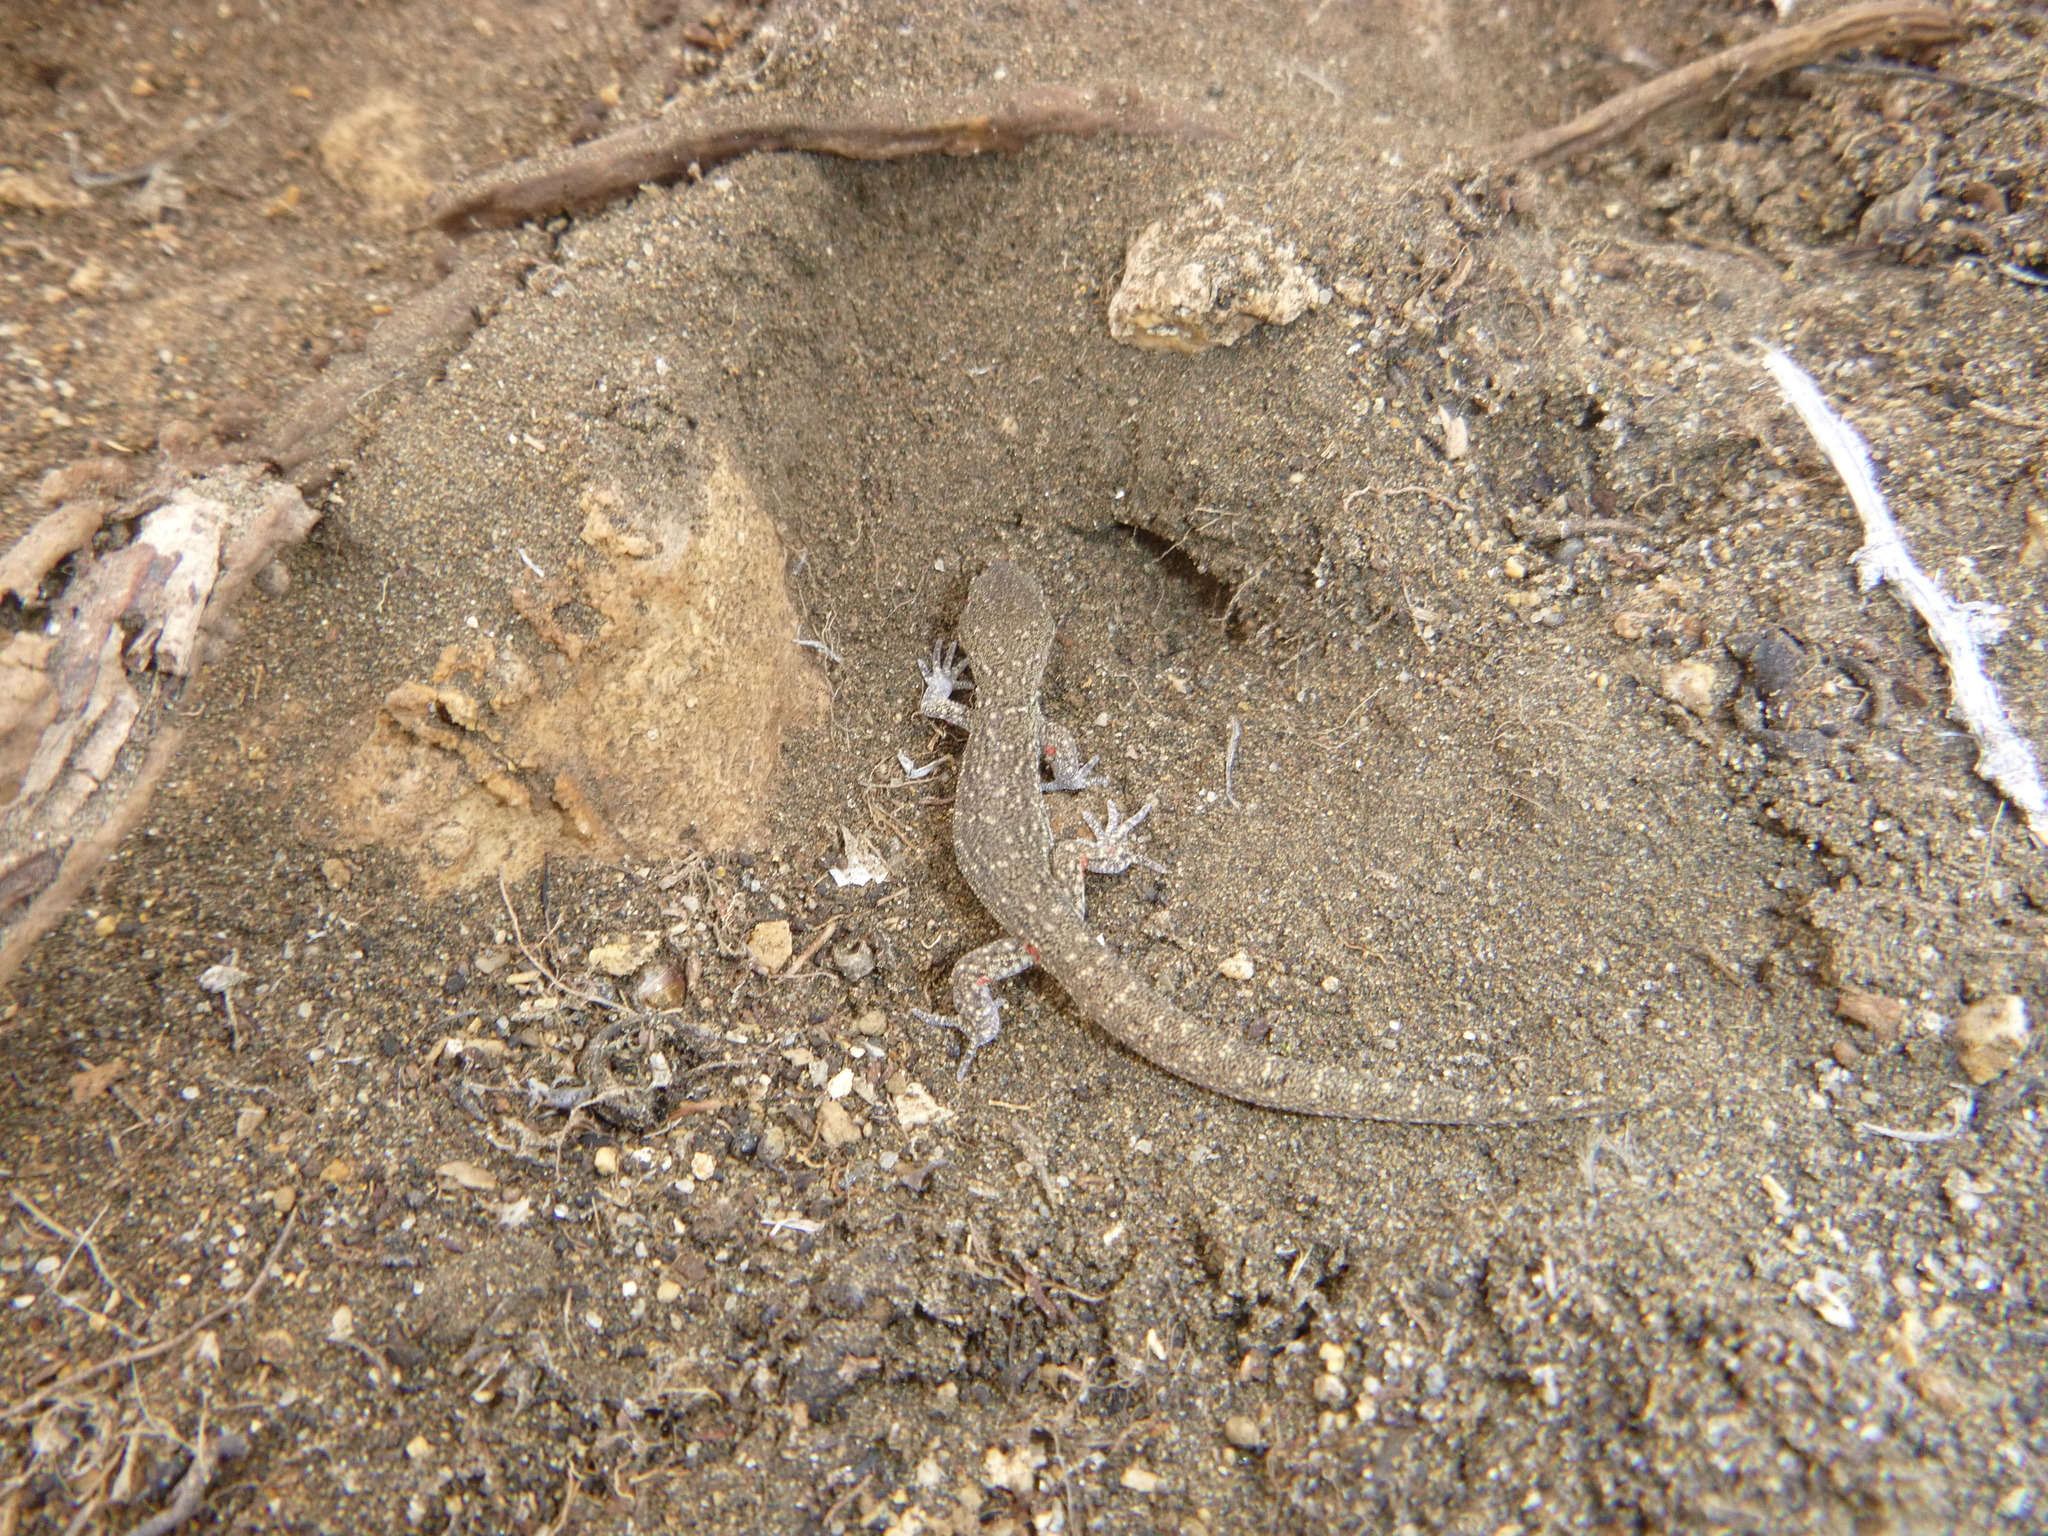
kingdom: Animalia
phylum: Chordata
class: Squamata
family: Phyllodactylidae
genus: Homonota
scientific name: Homonota darwinii
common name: Darwin's marked gecko
